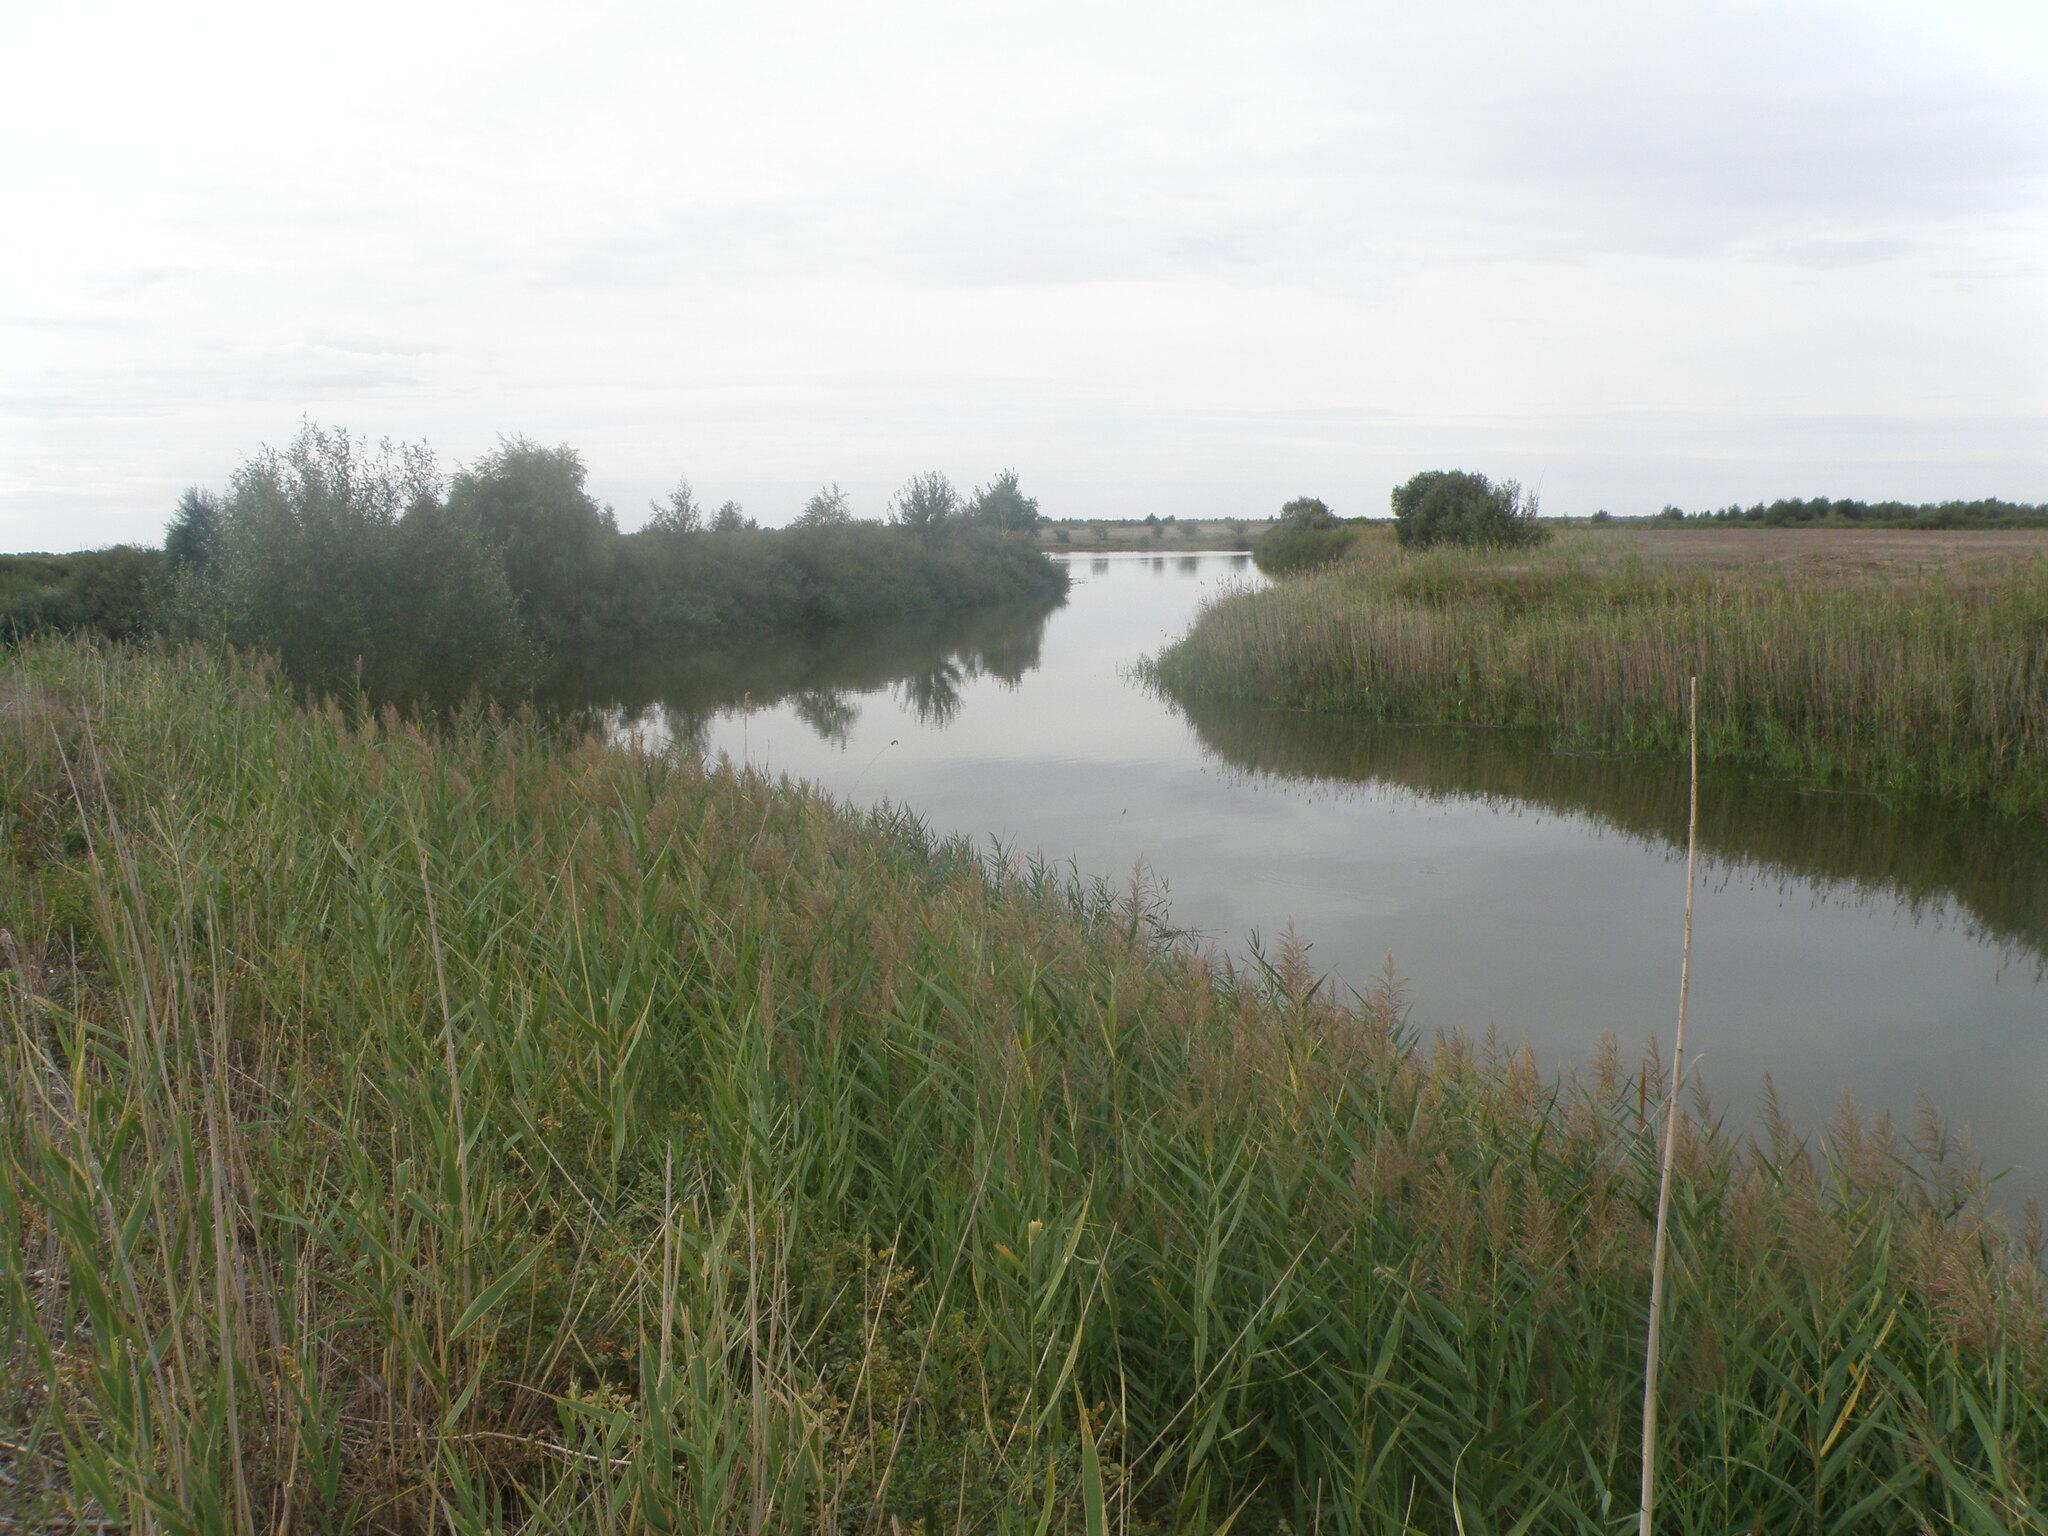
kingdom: Plantae
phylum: Tracheophyta
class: Liliopsida
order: Poales
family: Poaceae
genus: Phragmites
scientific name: Phragmites australis
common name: Common reed
